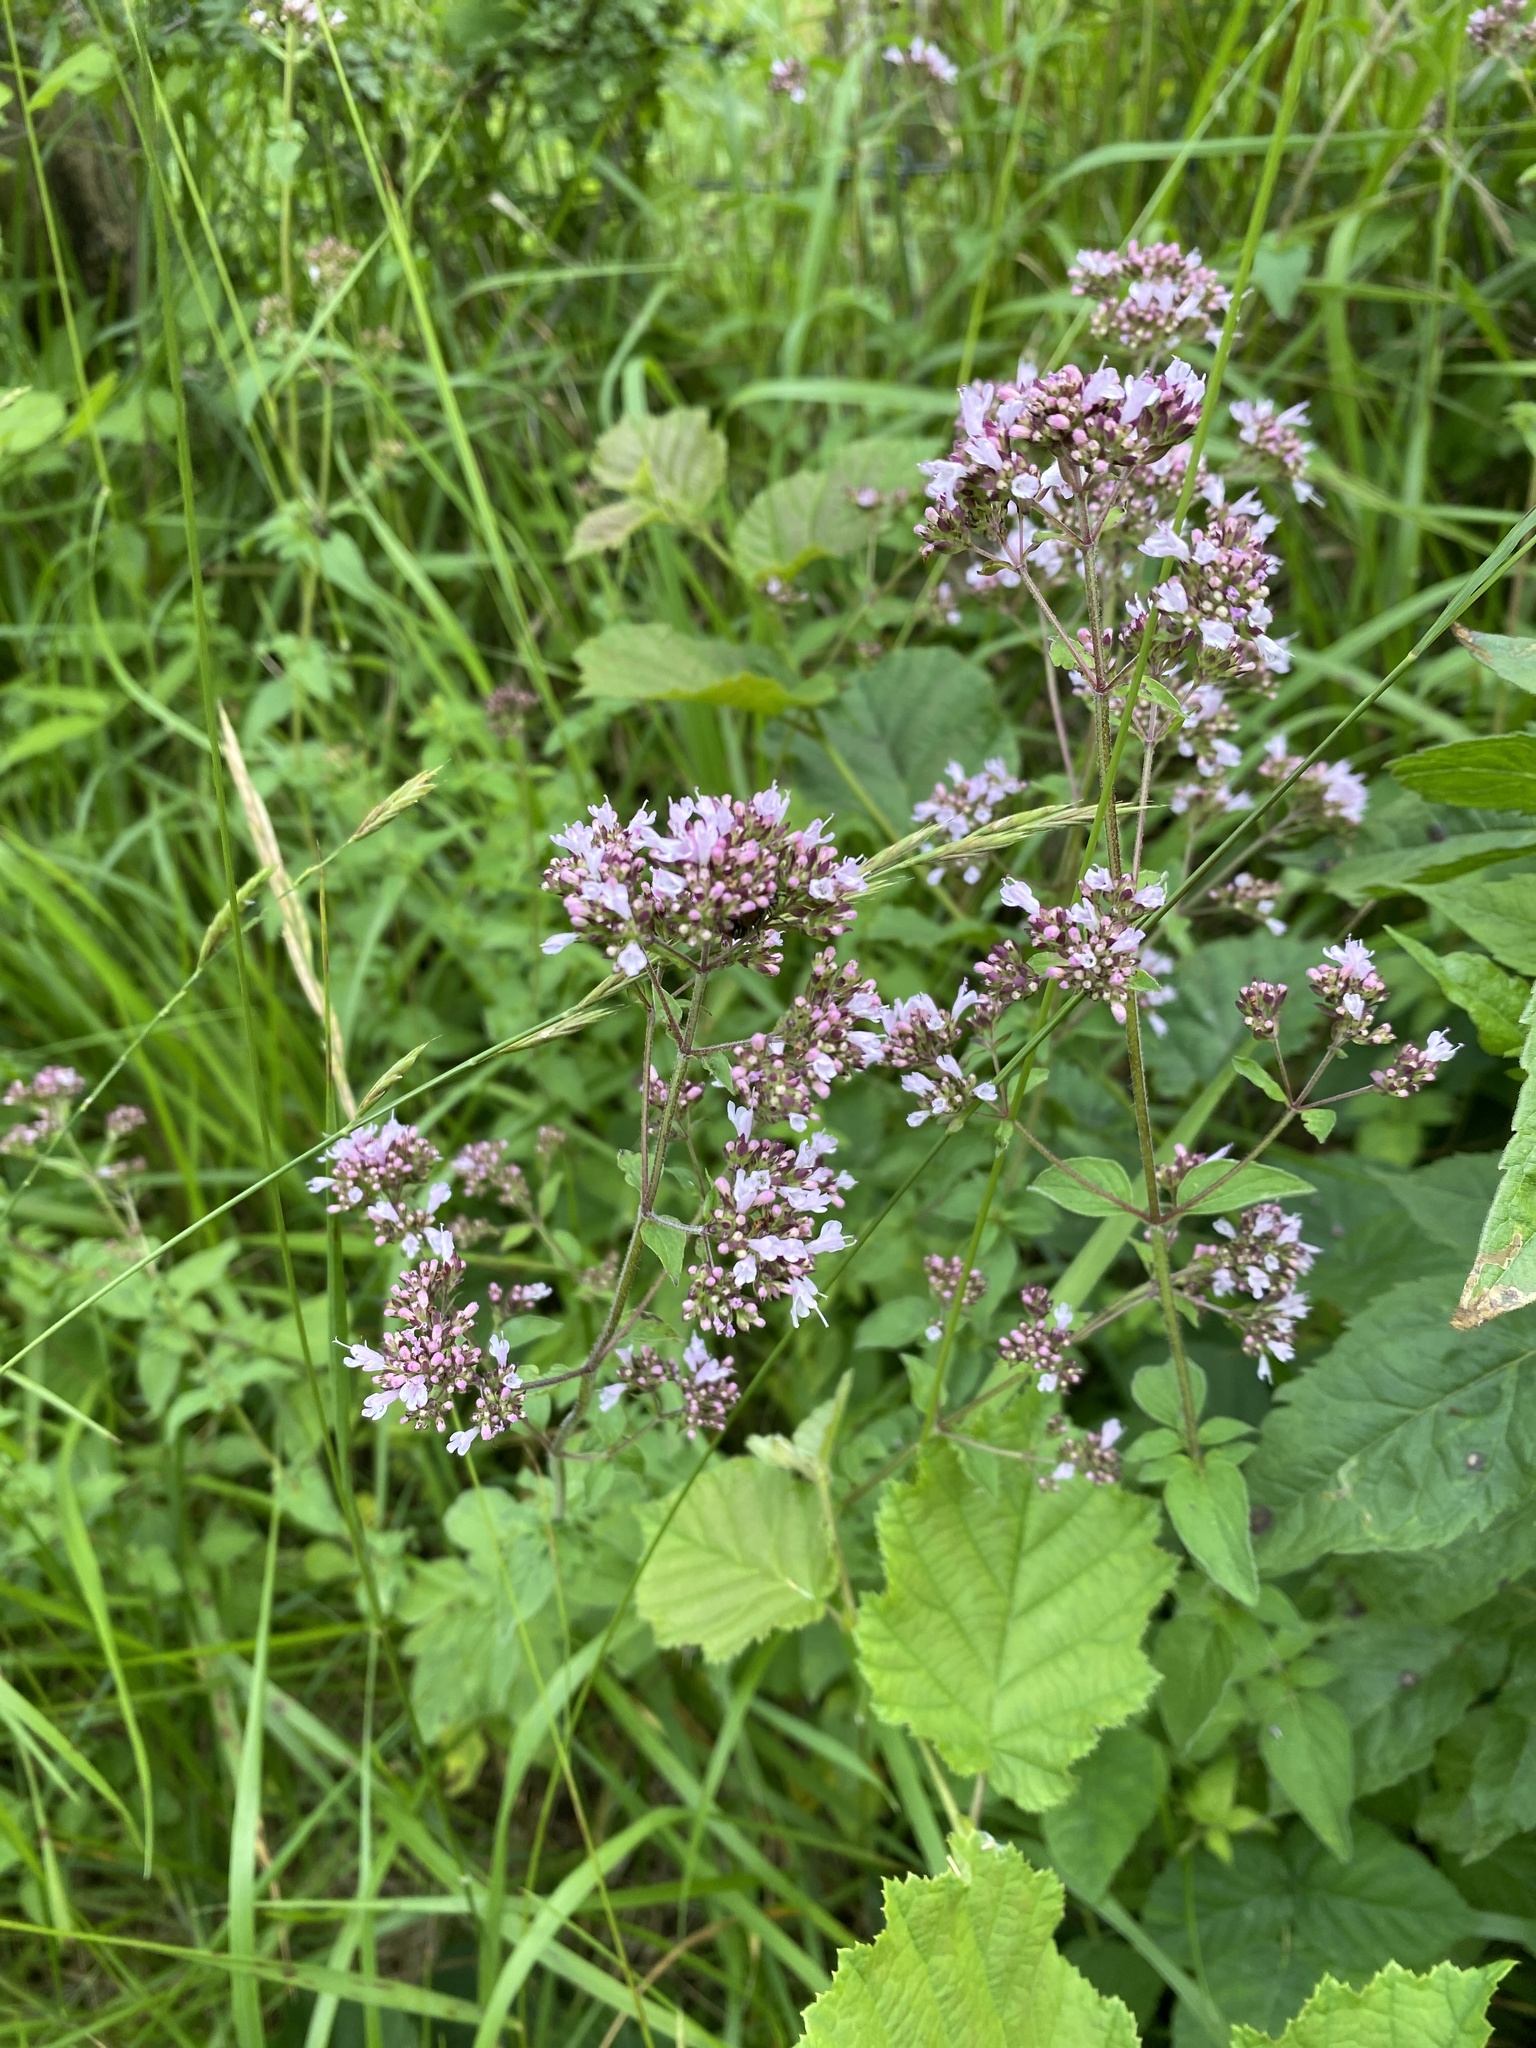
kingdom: Plantae
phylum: Tracheophyta
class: Magnoliopsida
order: Lamiales
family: Lamiaceae
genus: Origanum
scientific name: Origanum vulgare
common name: Wild marjoram
